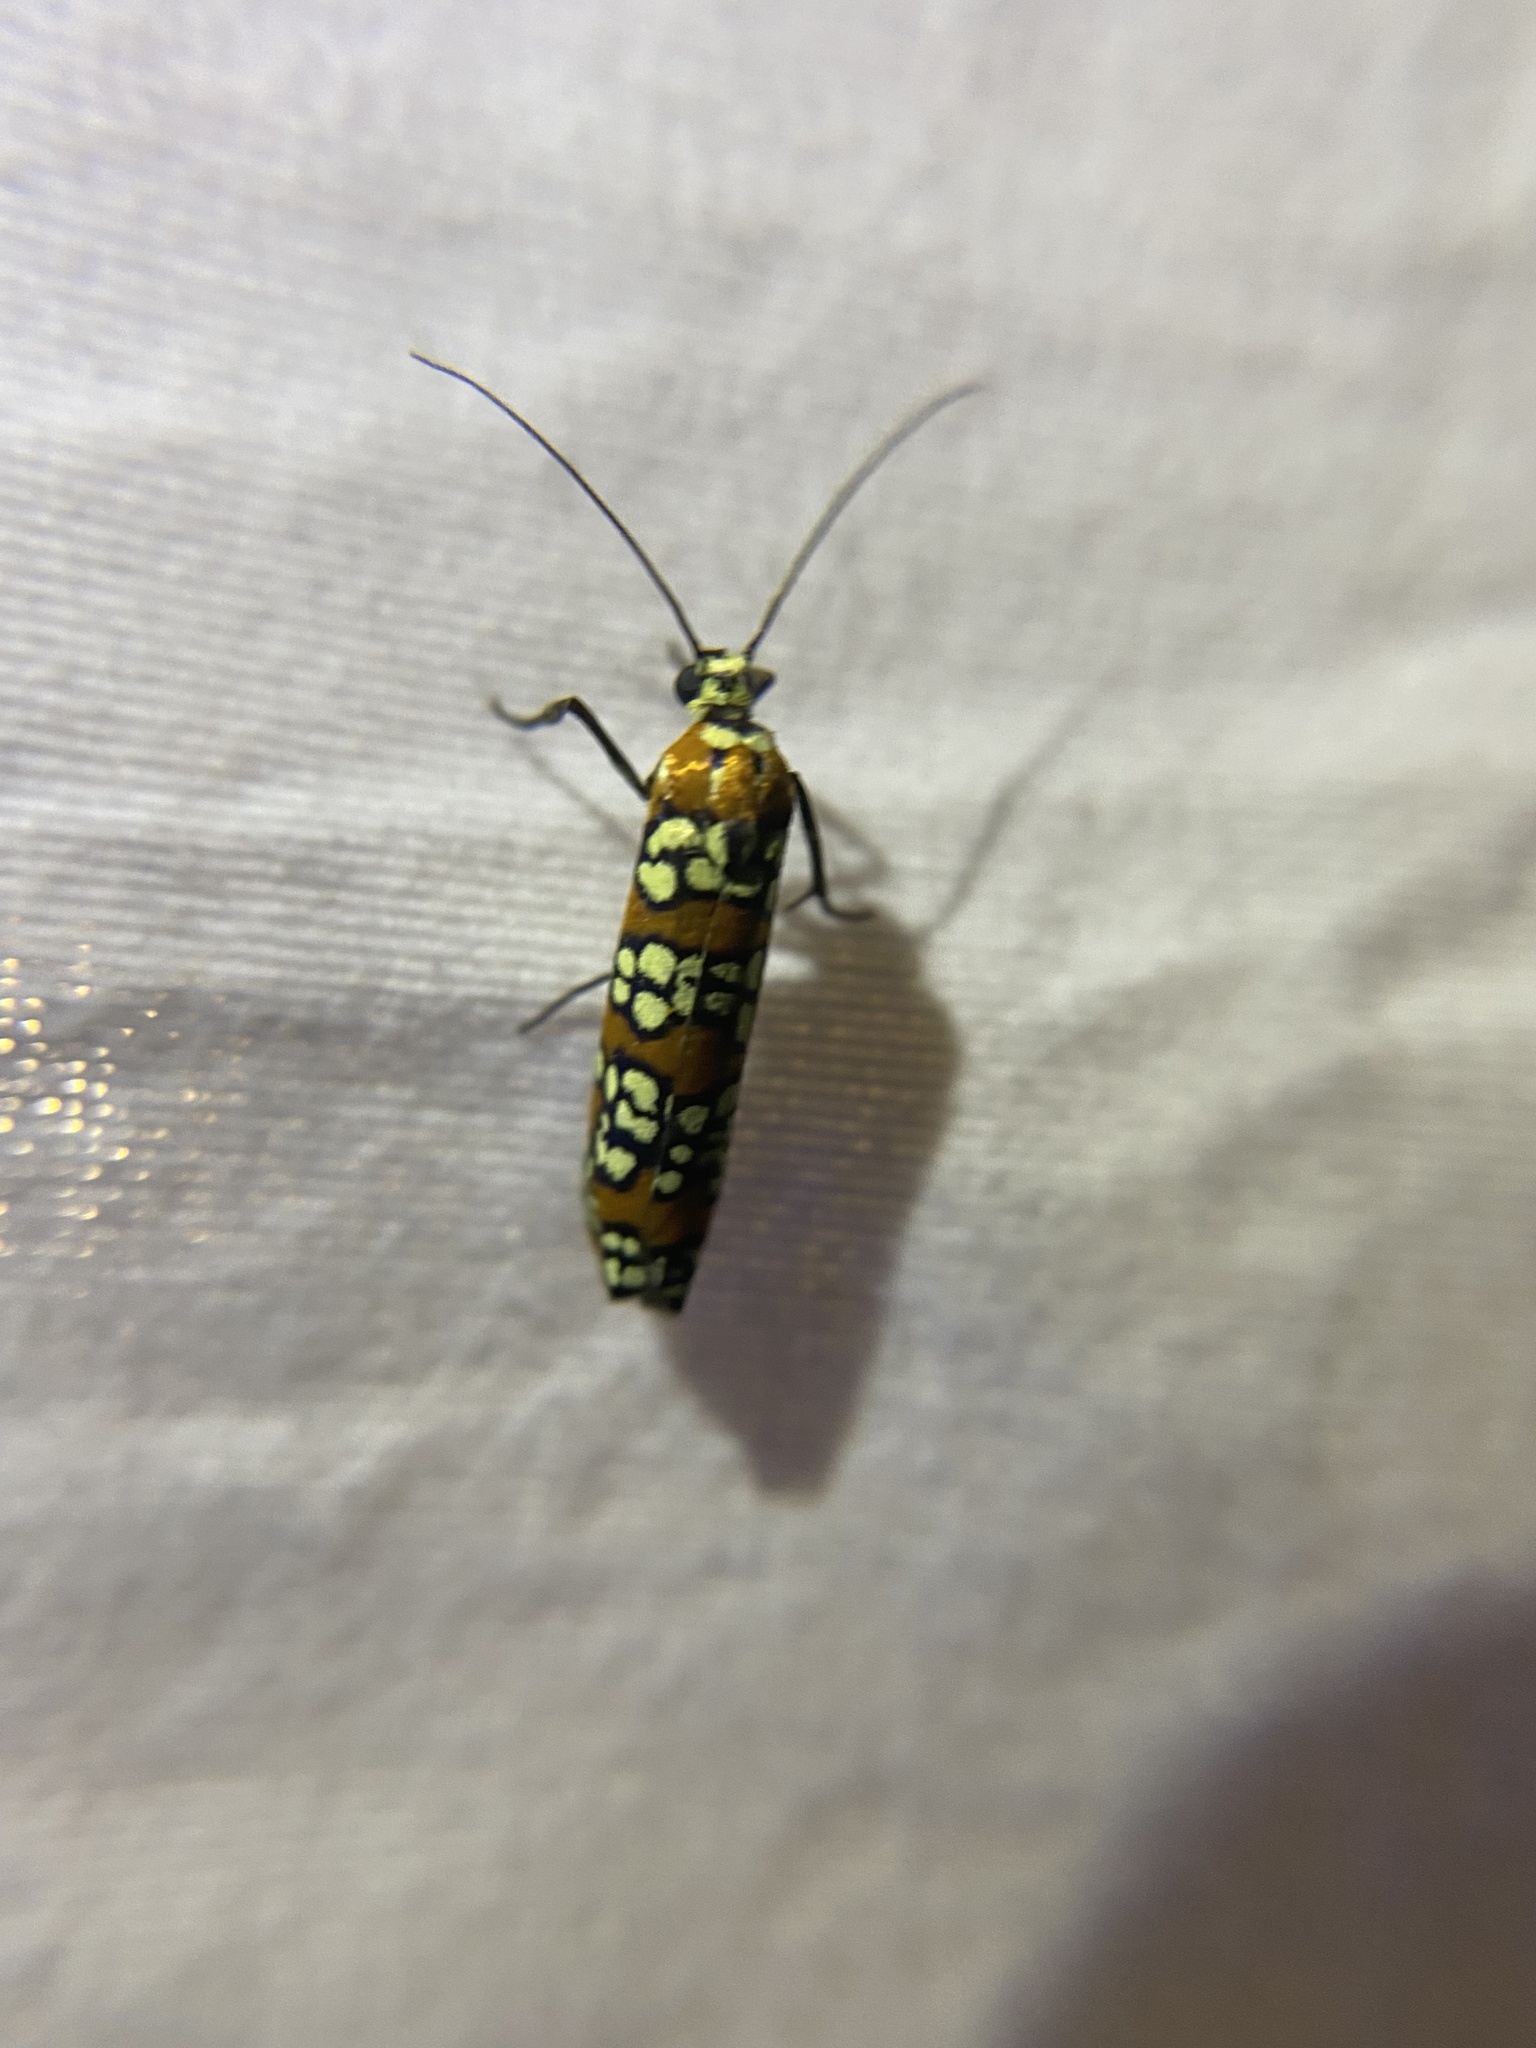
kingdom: Animalia
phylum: Arthropoda
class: Insecta
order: Lepidoptera
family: Attevidae
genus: Atteva
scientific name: Atteva punctella
